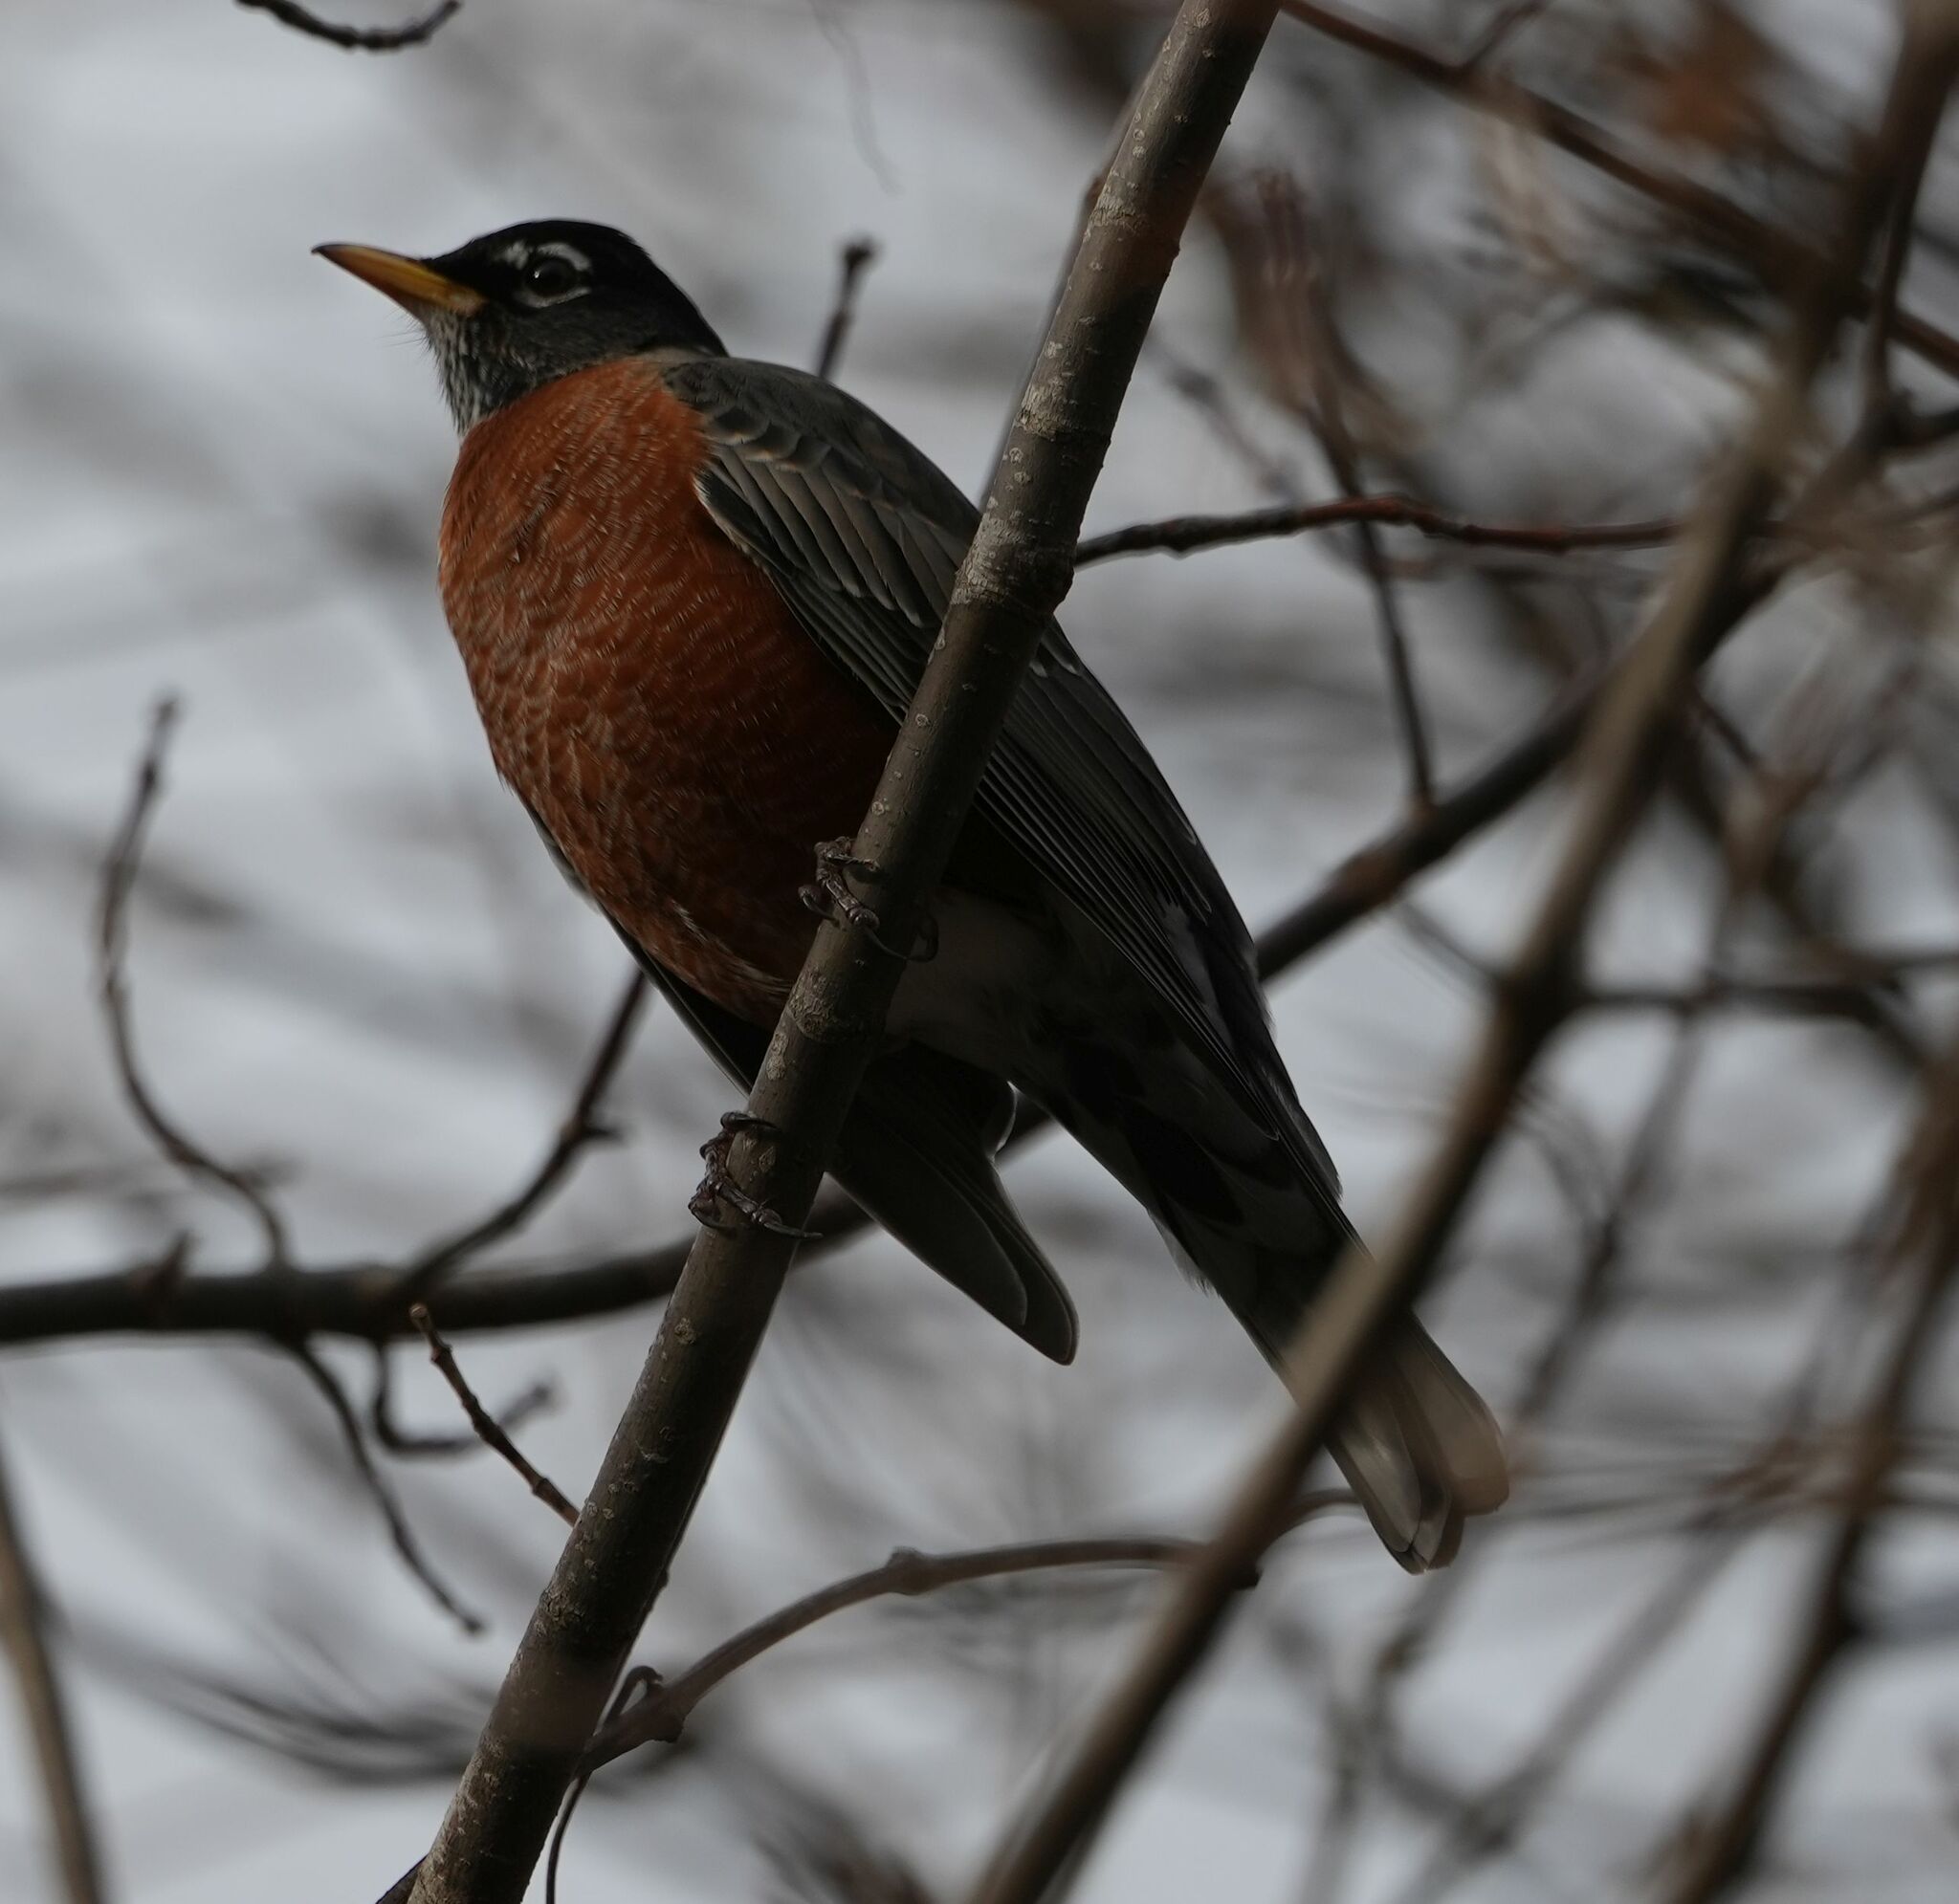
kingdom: Animalia
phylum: Chordata
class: Aves
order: Passeriformes
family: Turdidae
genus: Turdus
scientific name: Turdus migratorius
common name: American robin
